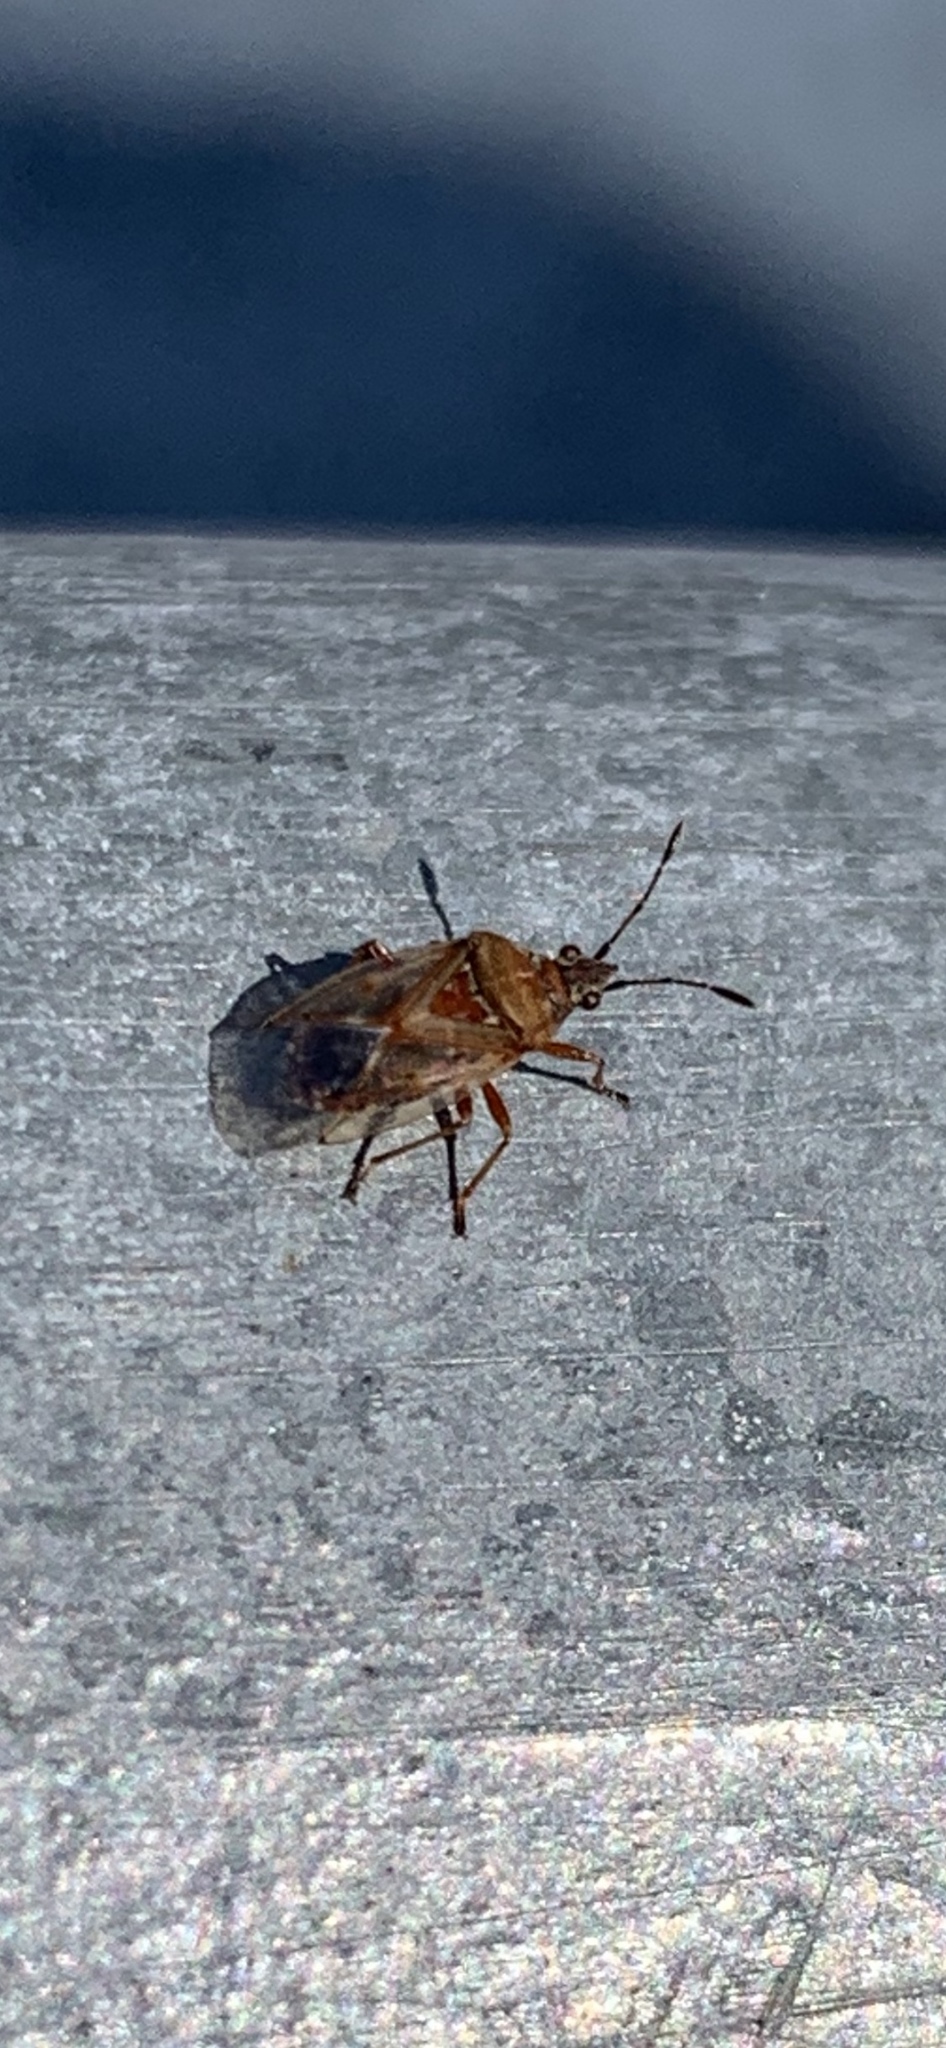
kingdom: Animalia
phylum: Arthropoda
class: Insecta
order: Hemiptera
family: Lygaeidae
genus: Kleidocerys
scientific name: Kleidocerys resedae
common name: Birch catkin bug
